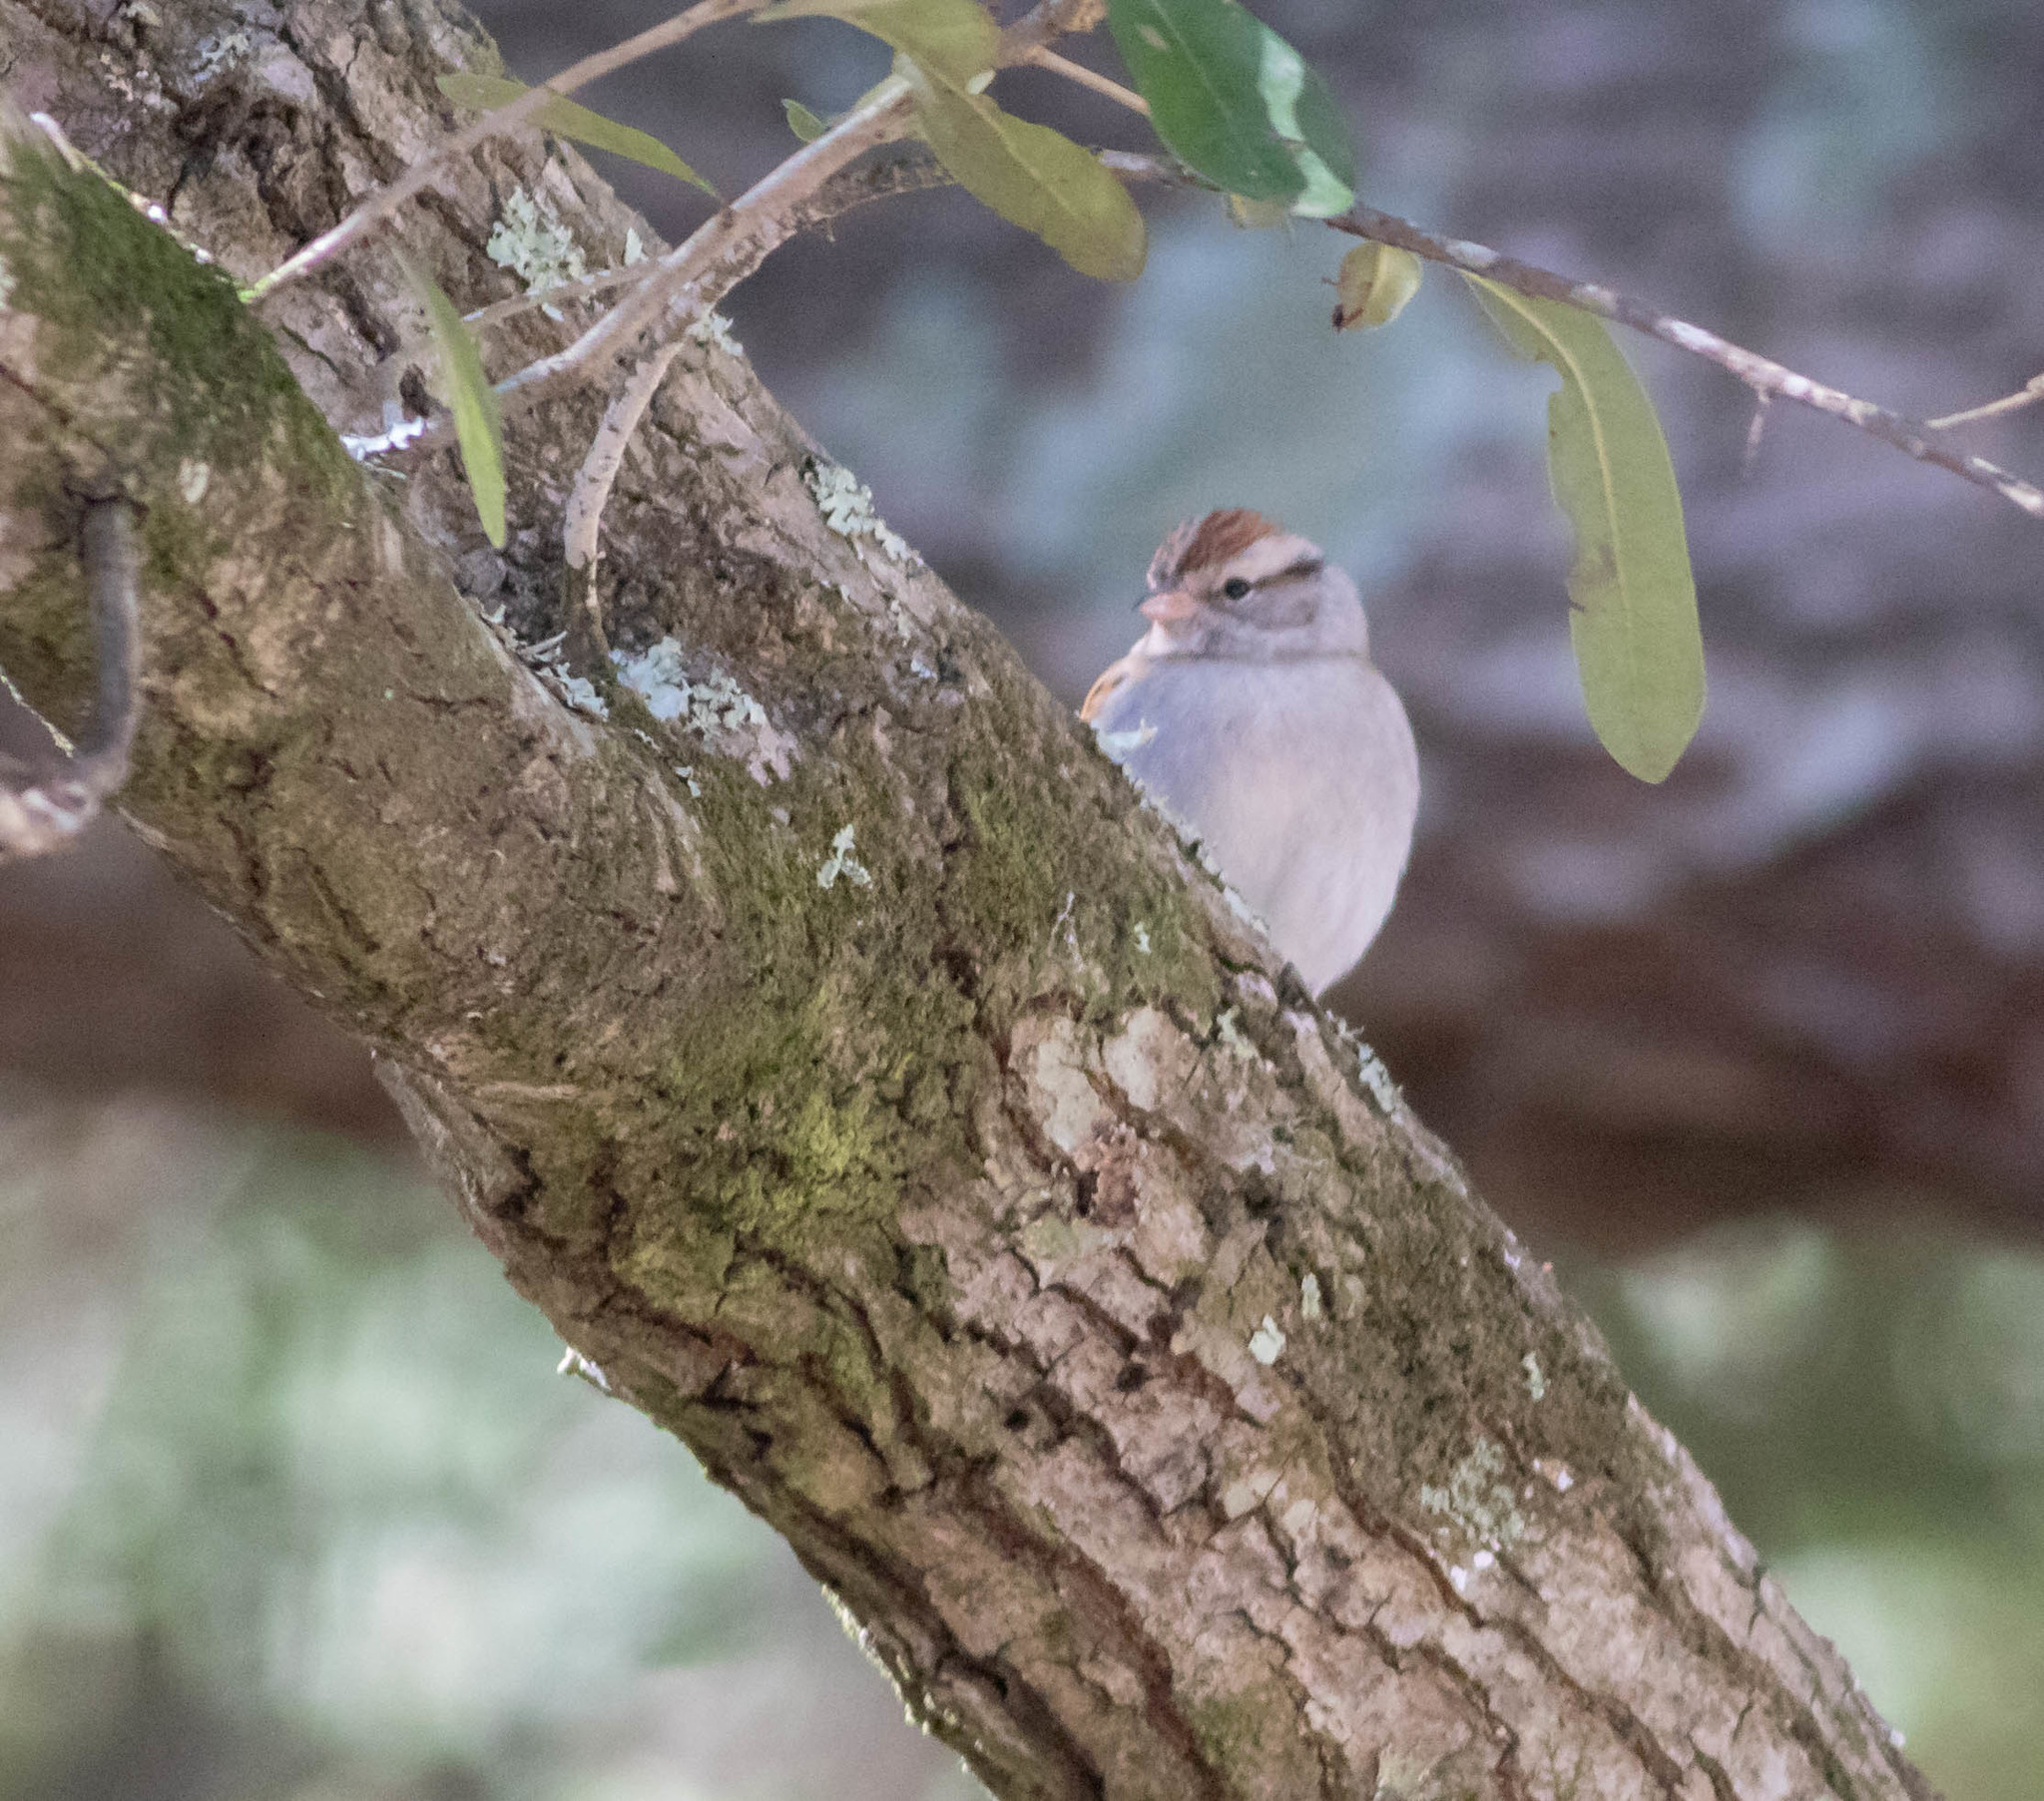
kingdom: Animalia
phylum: Chordata
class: Aves
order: Passeriformes
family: Passerellidae
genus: Spizella
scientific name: Spizella passerina
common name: Chipping sparrow
